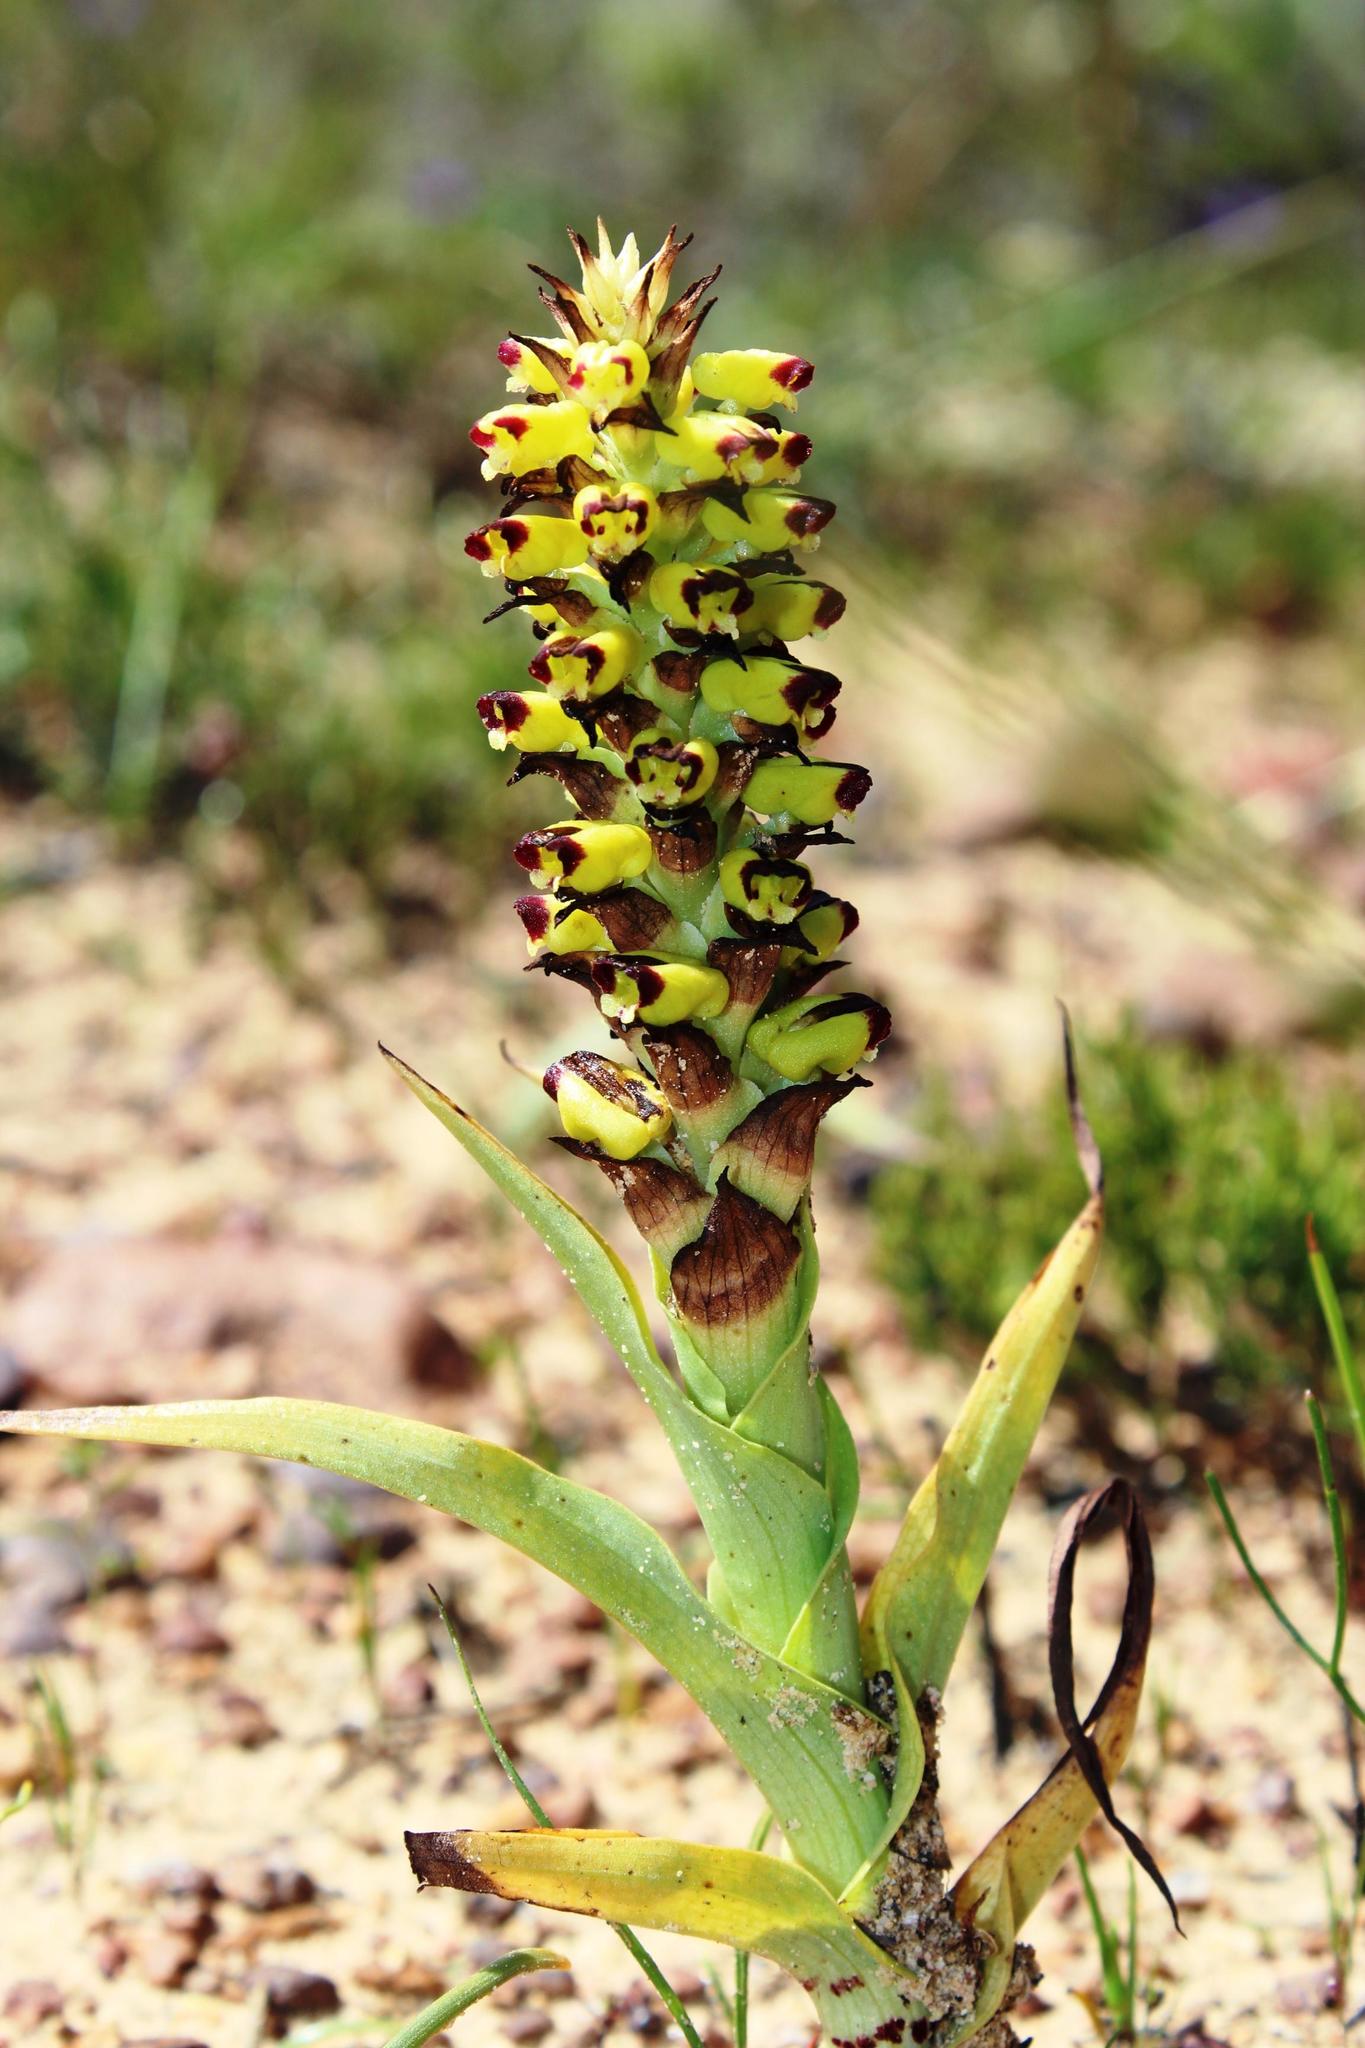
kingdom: Plantae
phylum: Tracheophyta
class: Liliopsida
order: Asparagales
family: Orchidaceae
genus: Corycium
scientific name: Corycium orobanchoides
